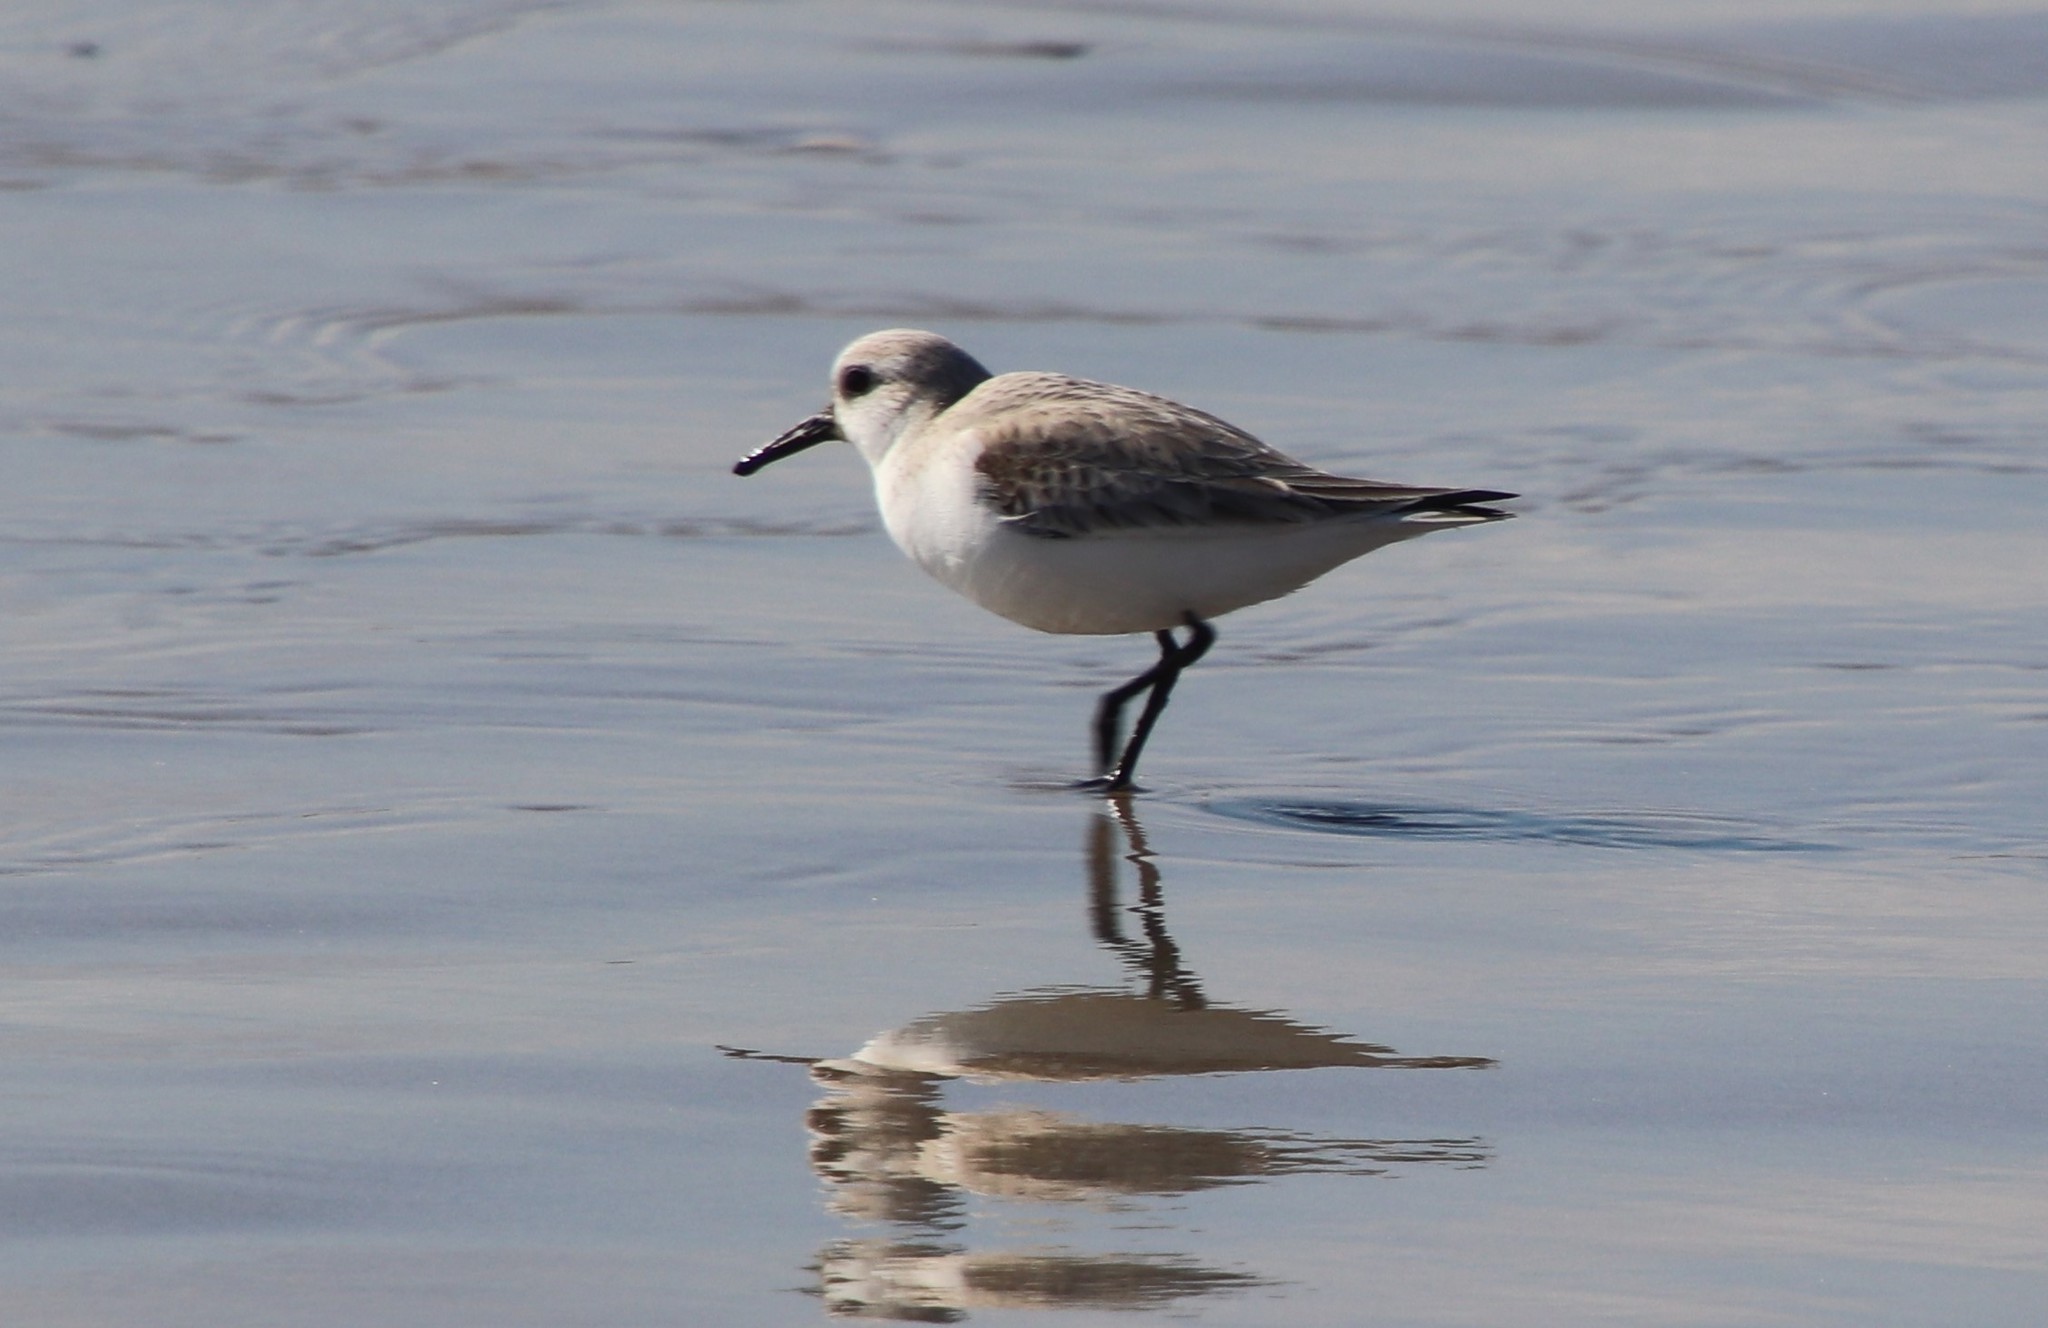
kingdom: Animalia
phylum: Chordata
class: Aves
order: Charadriiformes
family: Scolopacidae
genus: Calidris
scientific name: Calidris alba
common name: Sanderling
